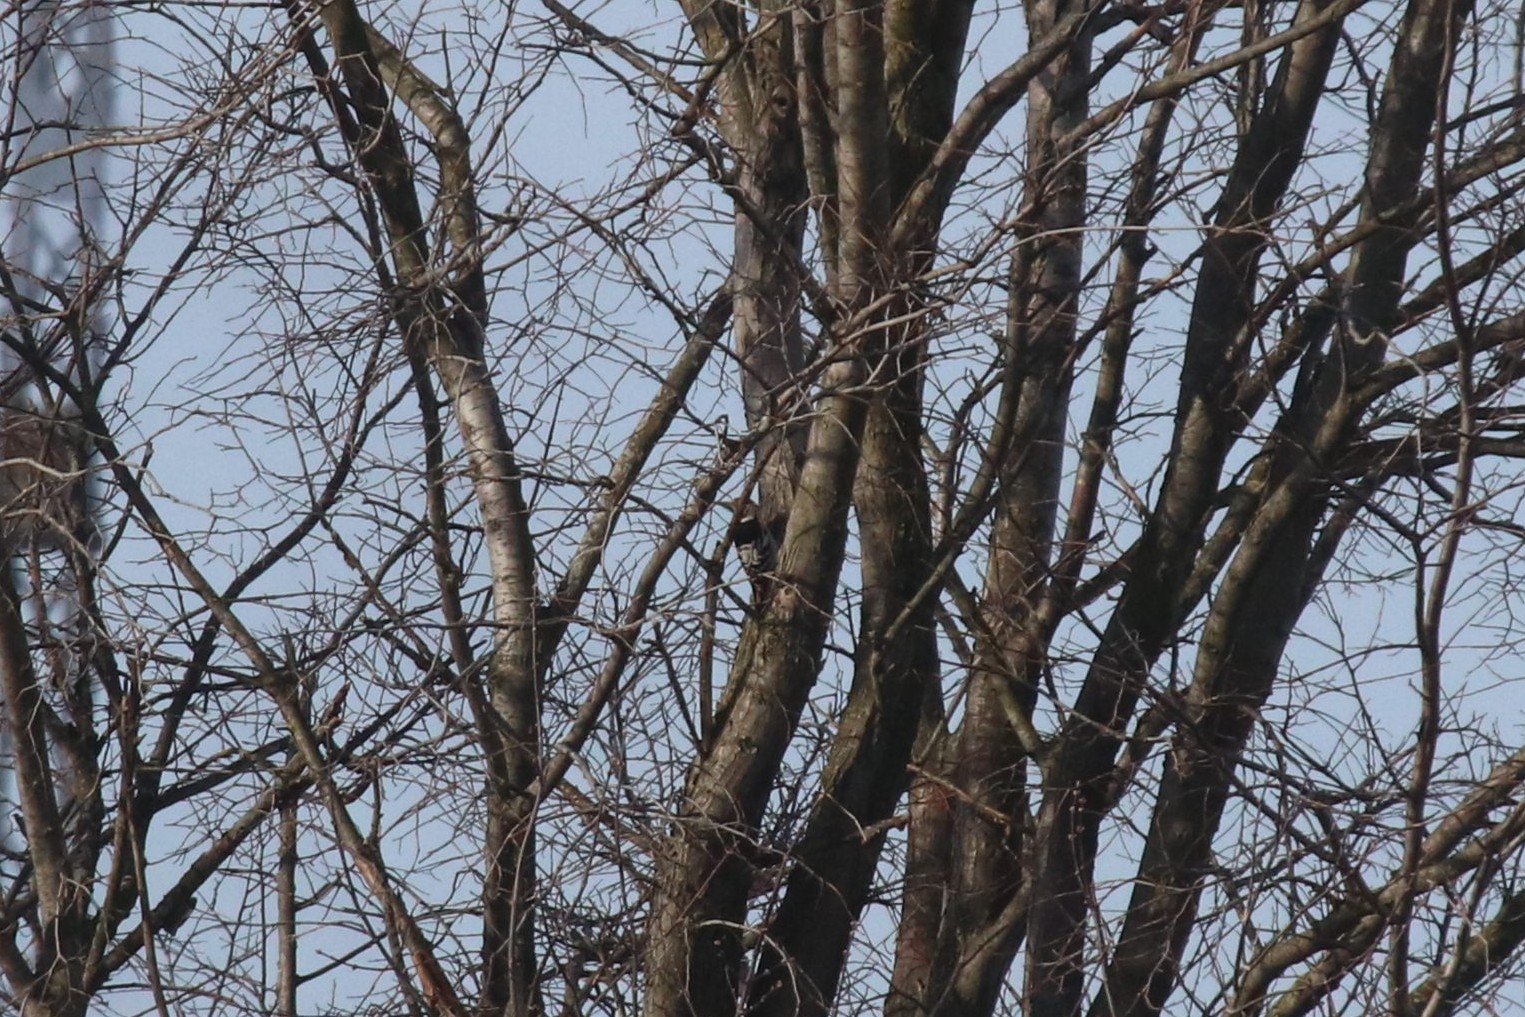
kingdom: Animalia
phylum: Chordata
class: Aves
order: Piciformes
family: Picidae
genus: Dendrocopos
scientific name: Dendrocopos leucotos
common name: White-backed woodpecker
